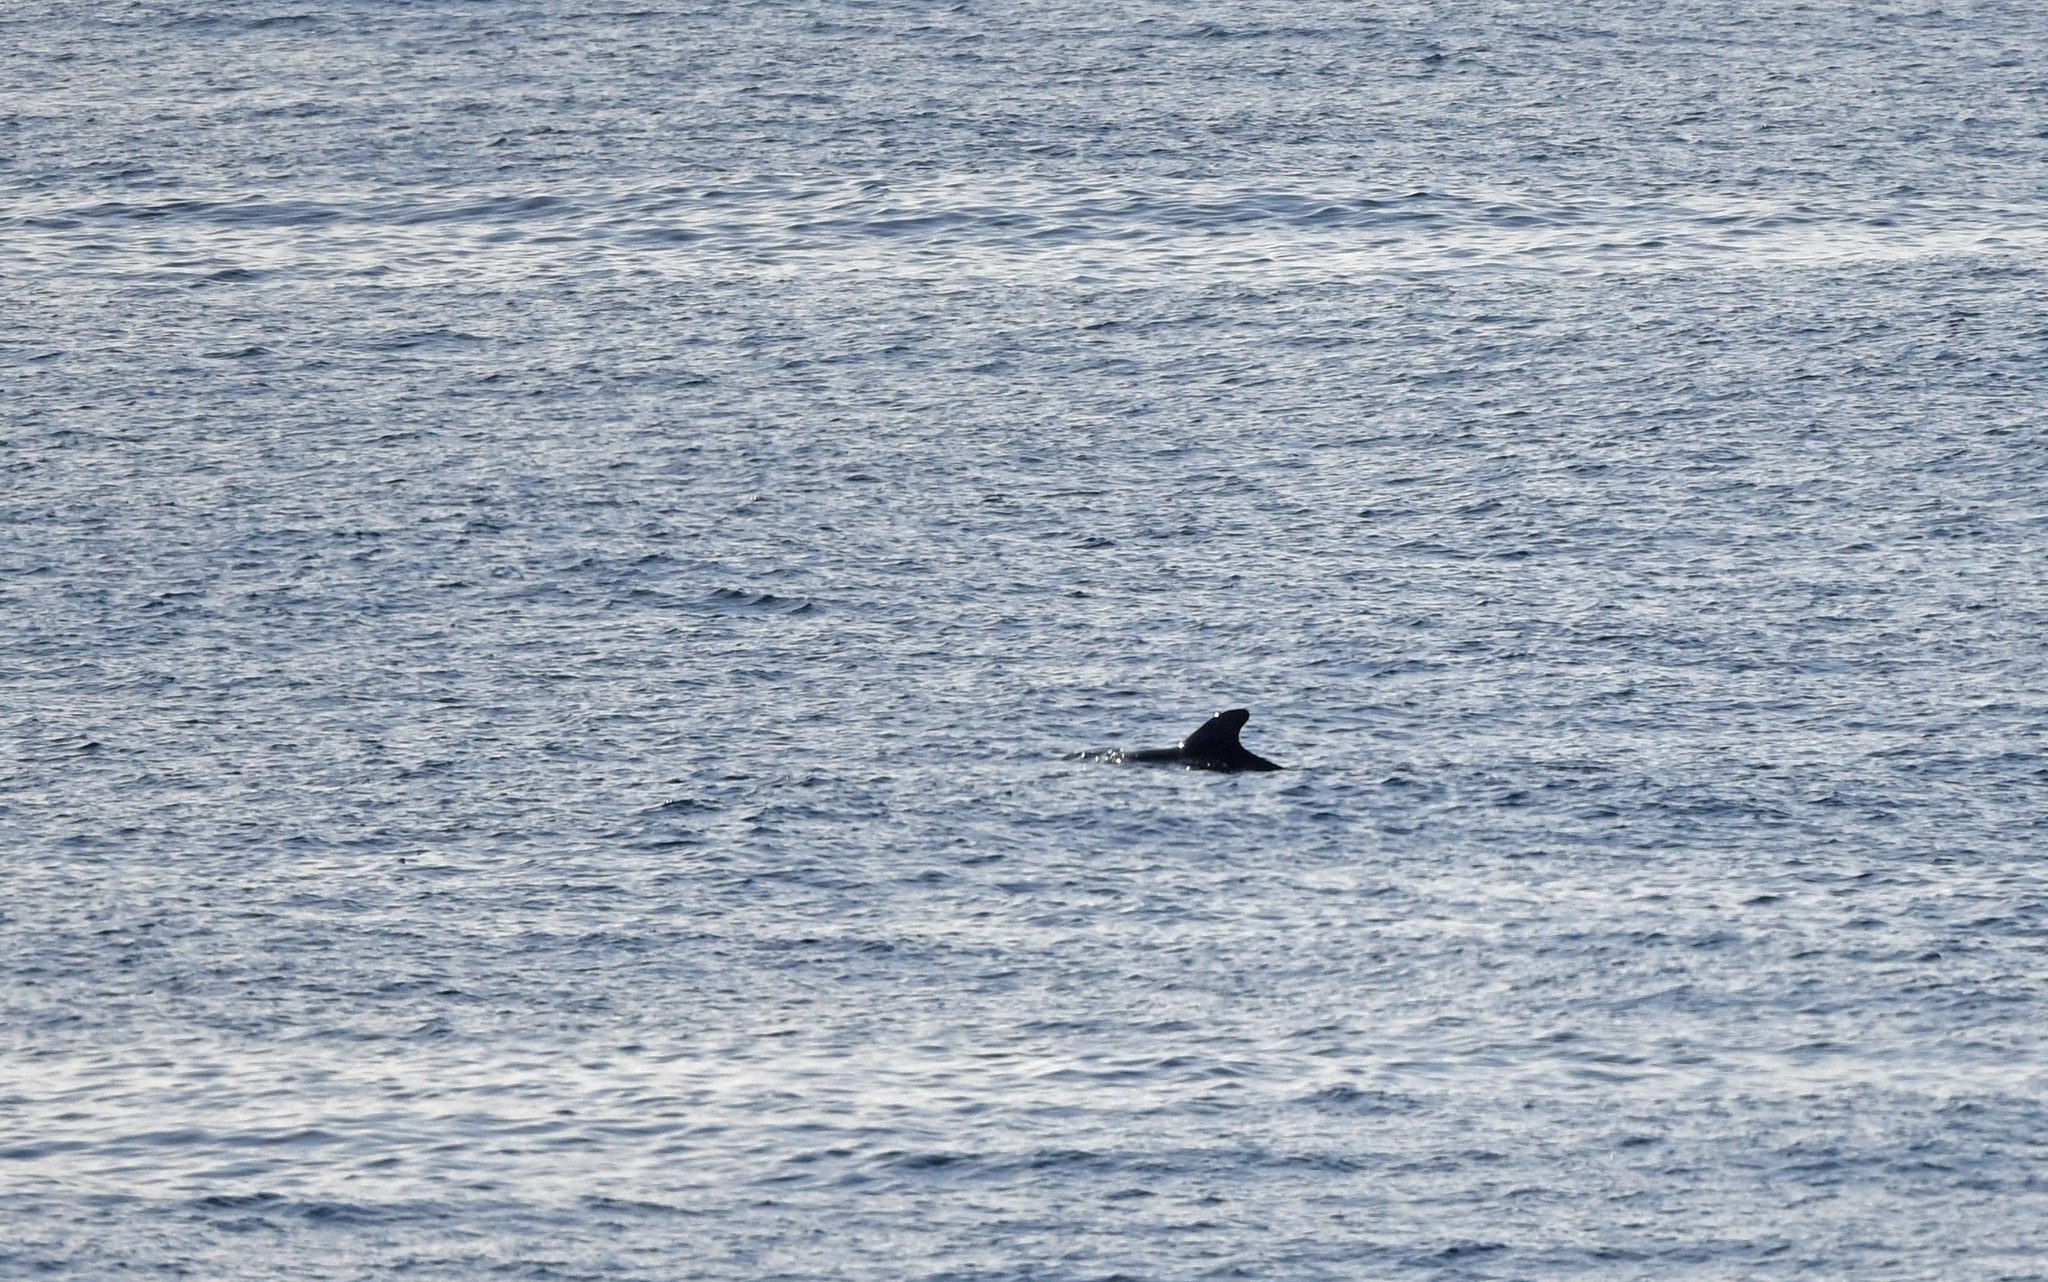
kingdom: Animalia
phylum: Chordata
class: Mammalia
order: Cetacea
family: Delphinidae
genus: Globicephala
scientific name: Globicephala macrorhynchus
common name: Short-finned pilot whale
